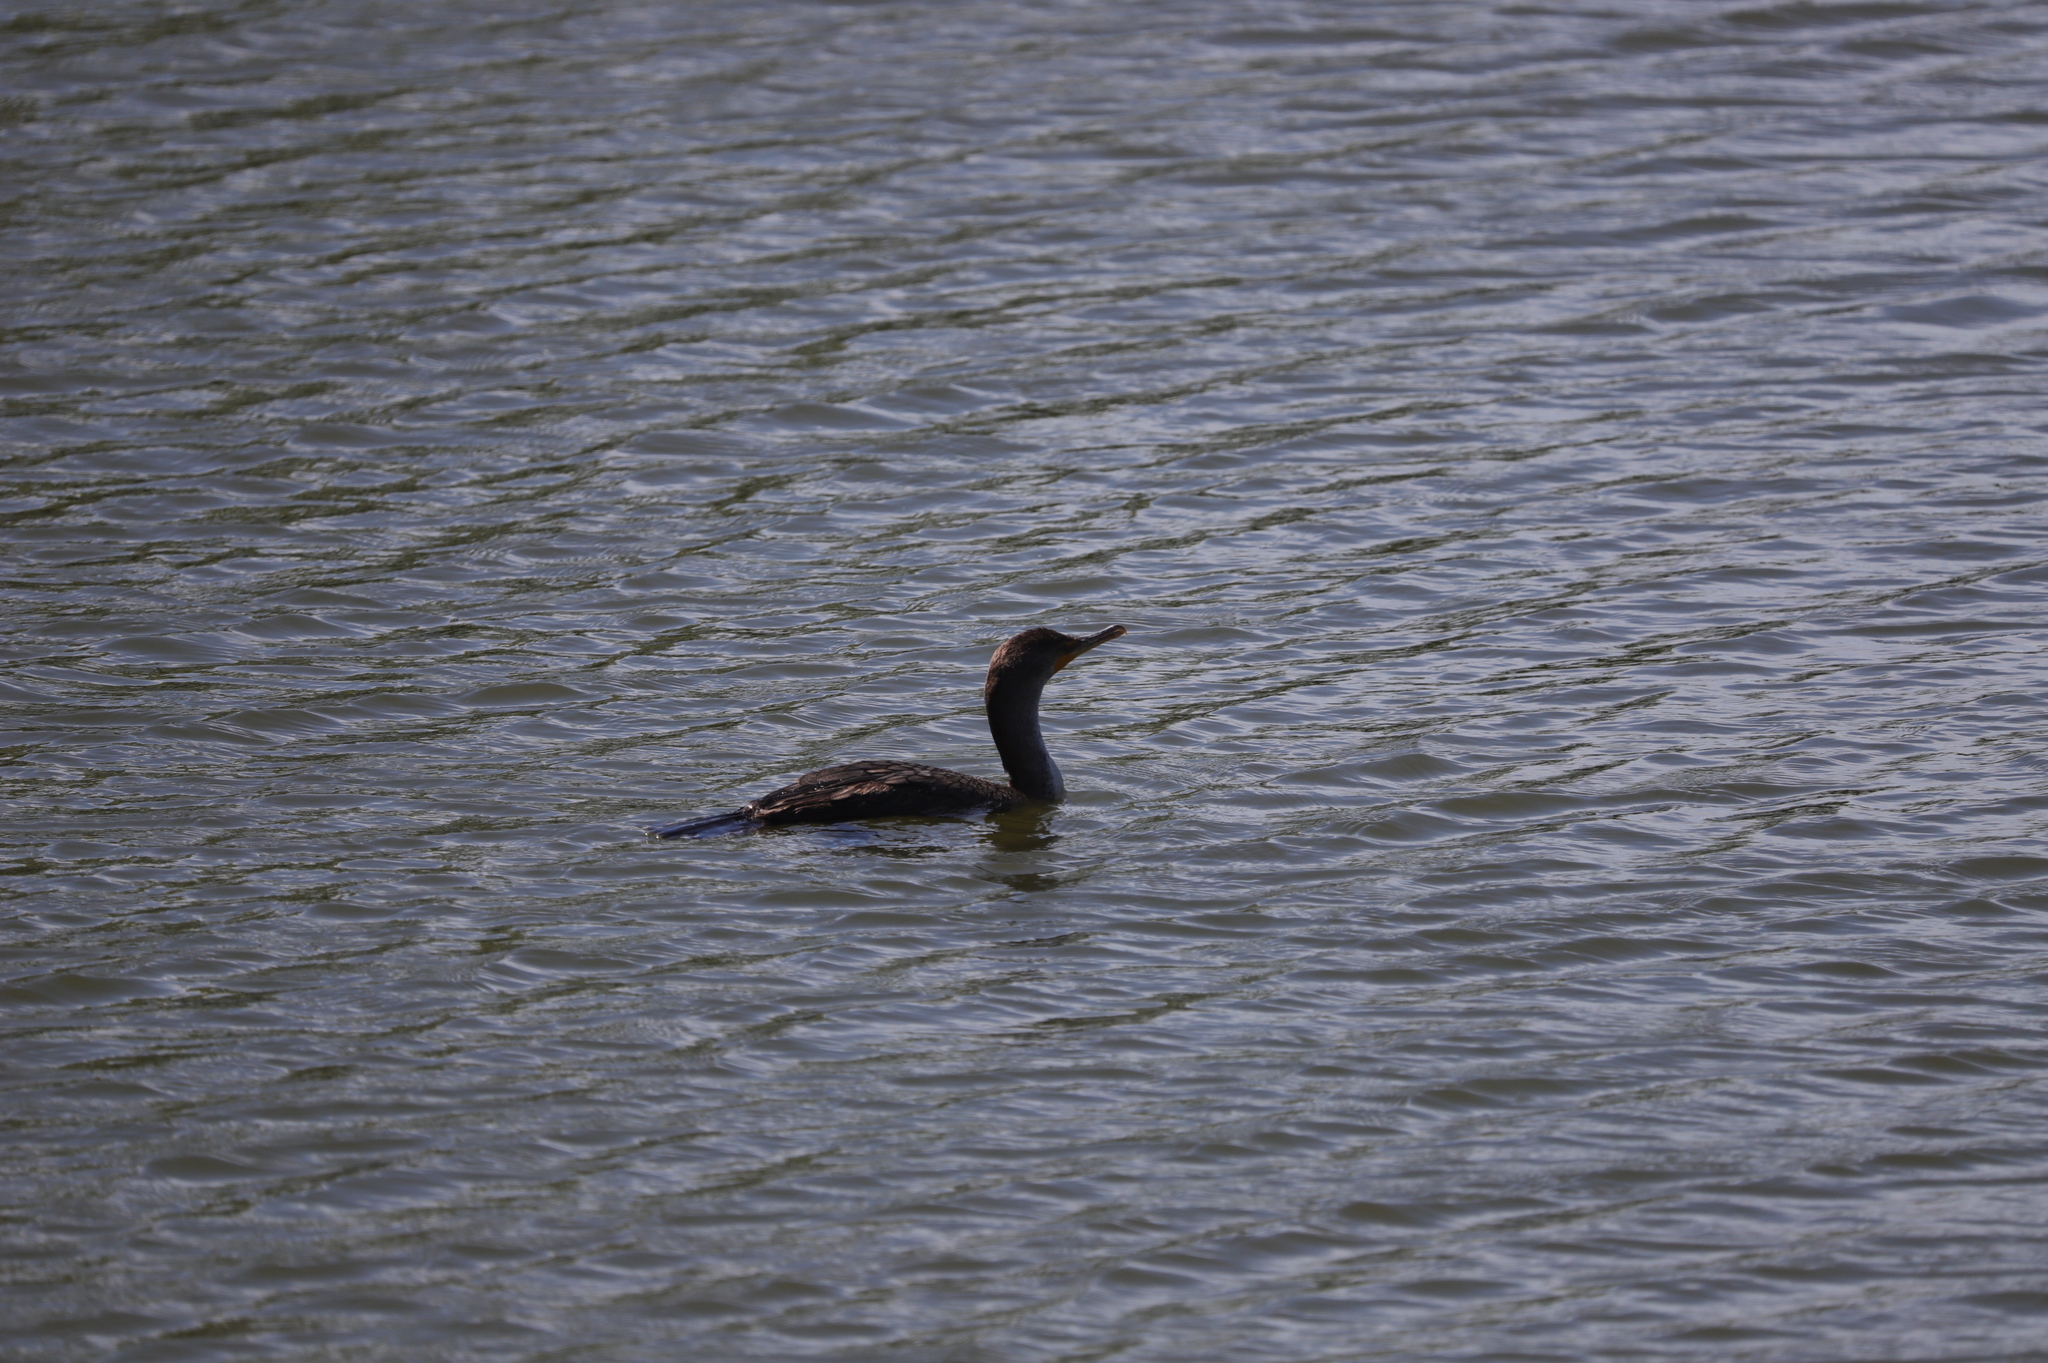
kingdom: Animalia
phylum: Chordata
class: Aves
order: Suliformes
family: Phalacrocoracidae
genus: Phalacrocorax
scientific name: Phalacrocorax auritus
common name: Double-crested cormorant
